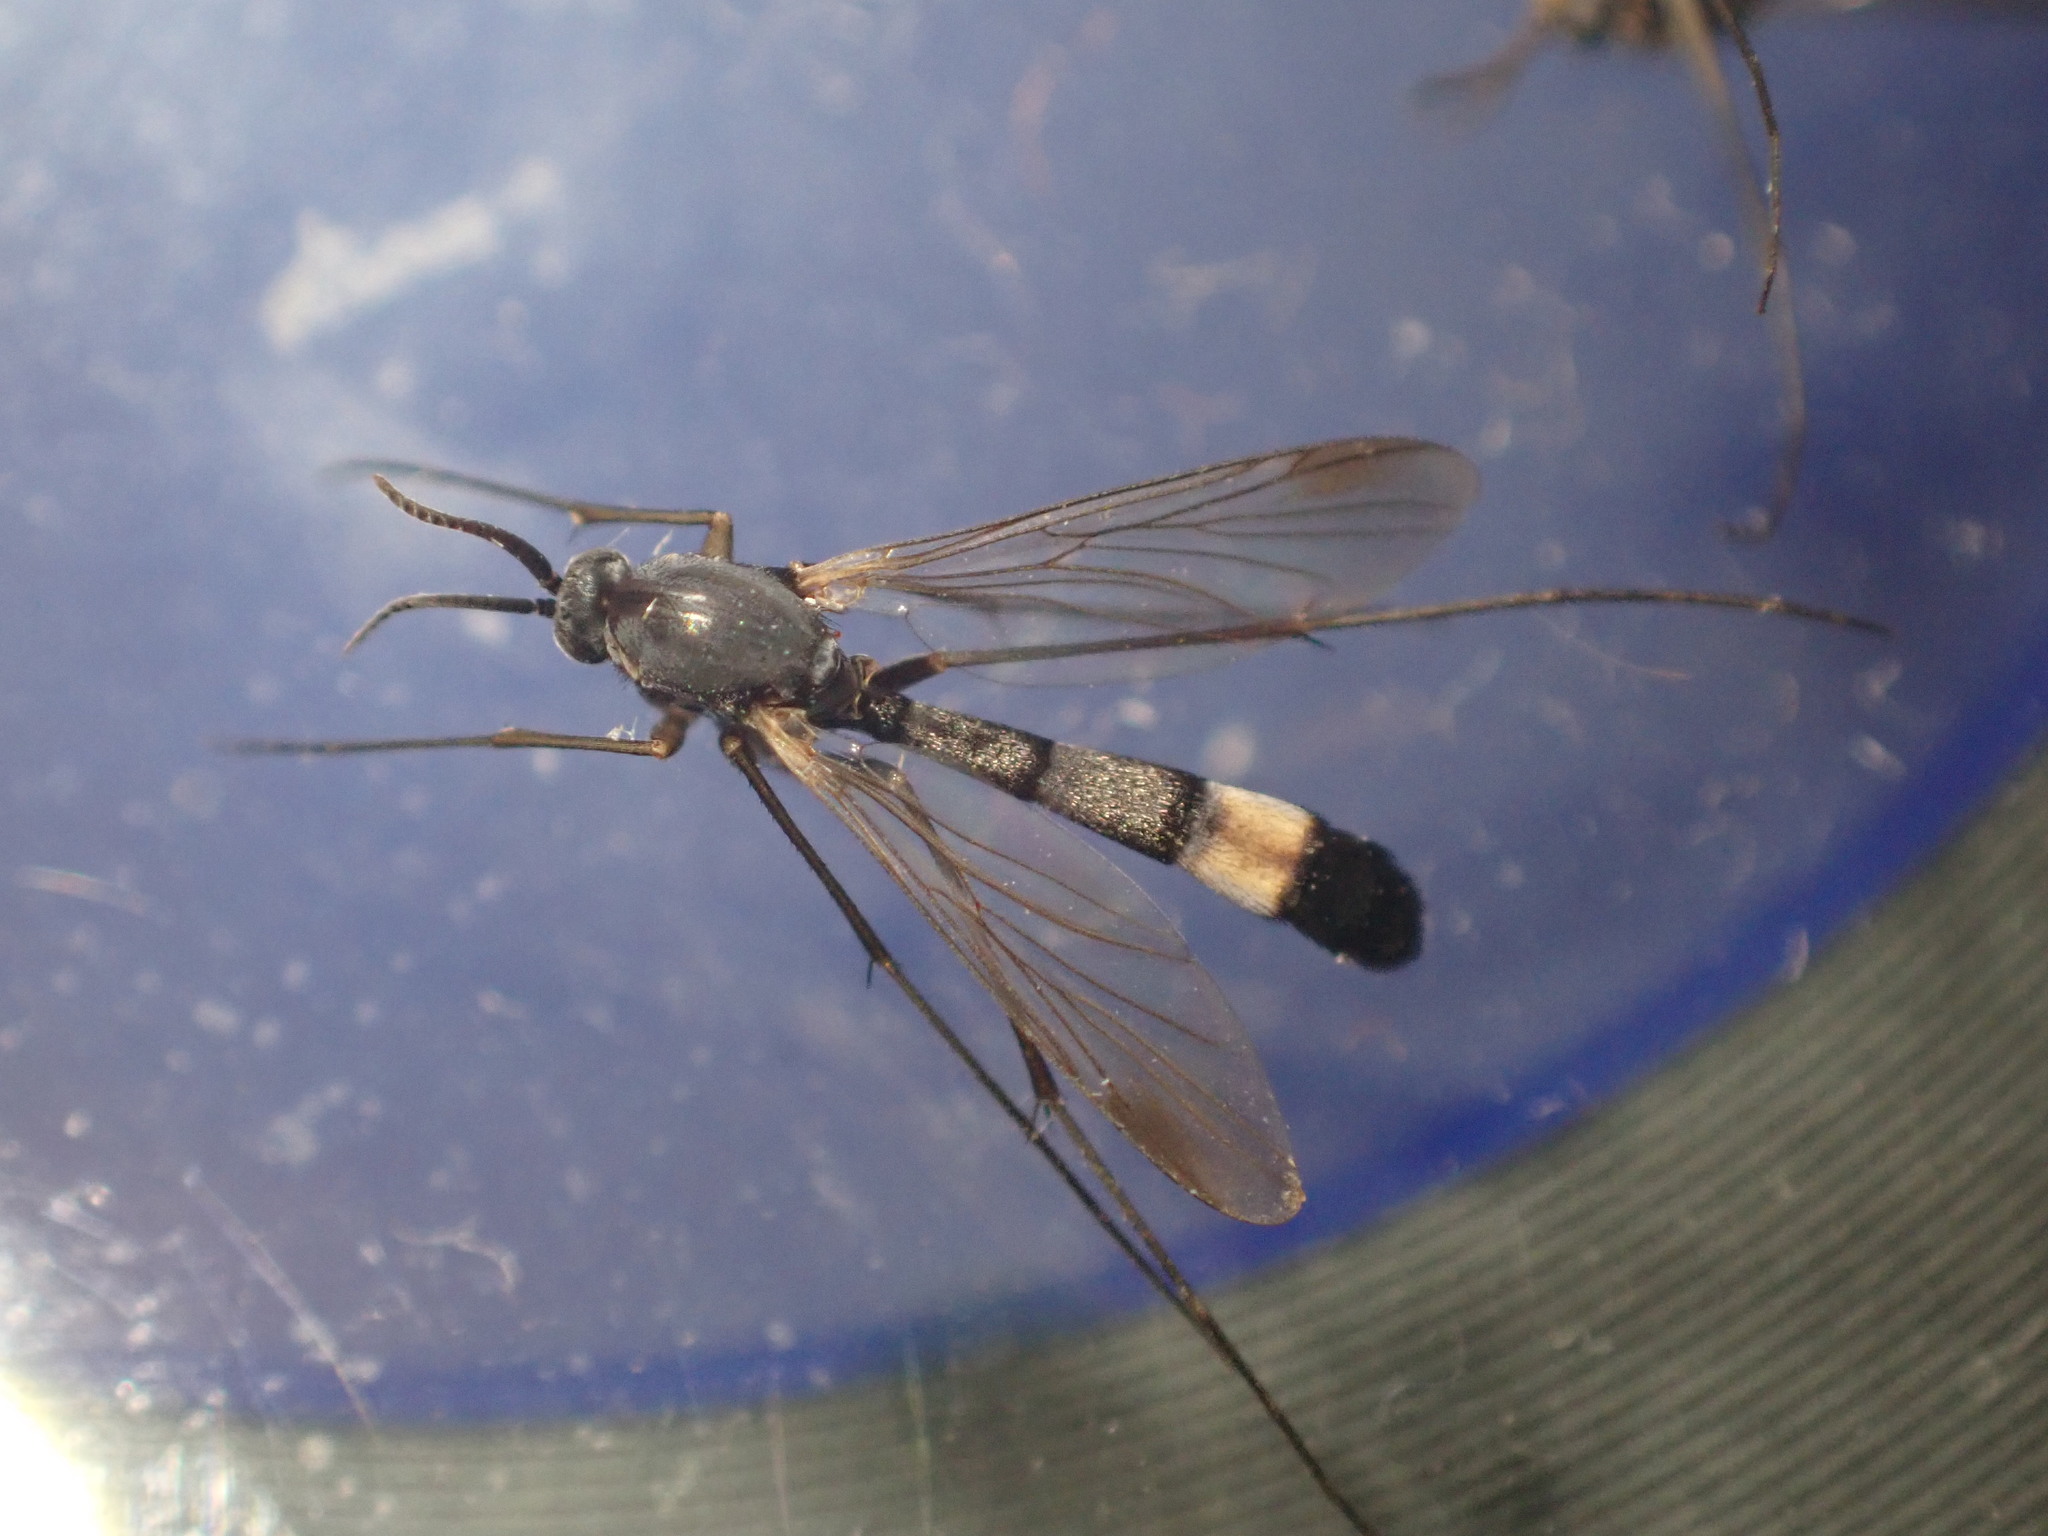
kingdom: Animalia
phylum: Arthropoda
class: Insecta
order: Diptera
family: Keroplatidae
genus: Isoneuromyia
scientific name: Isoneuromyia harrisi
